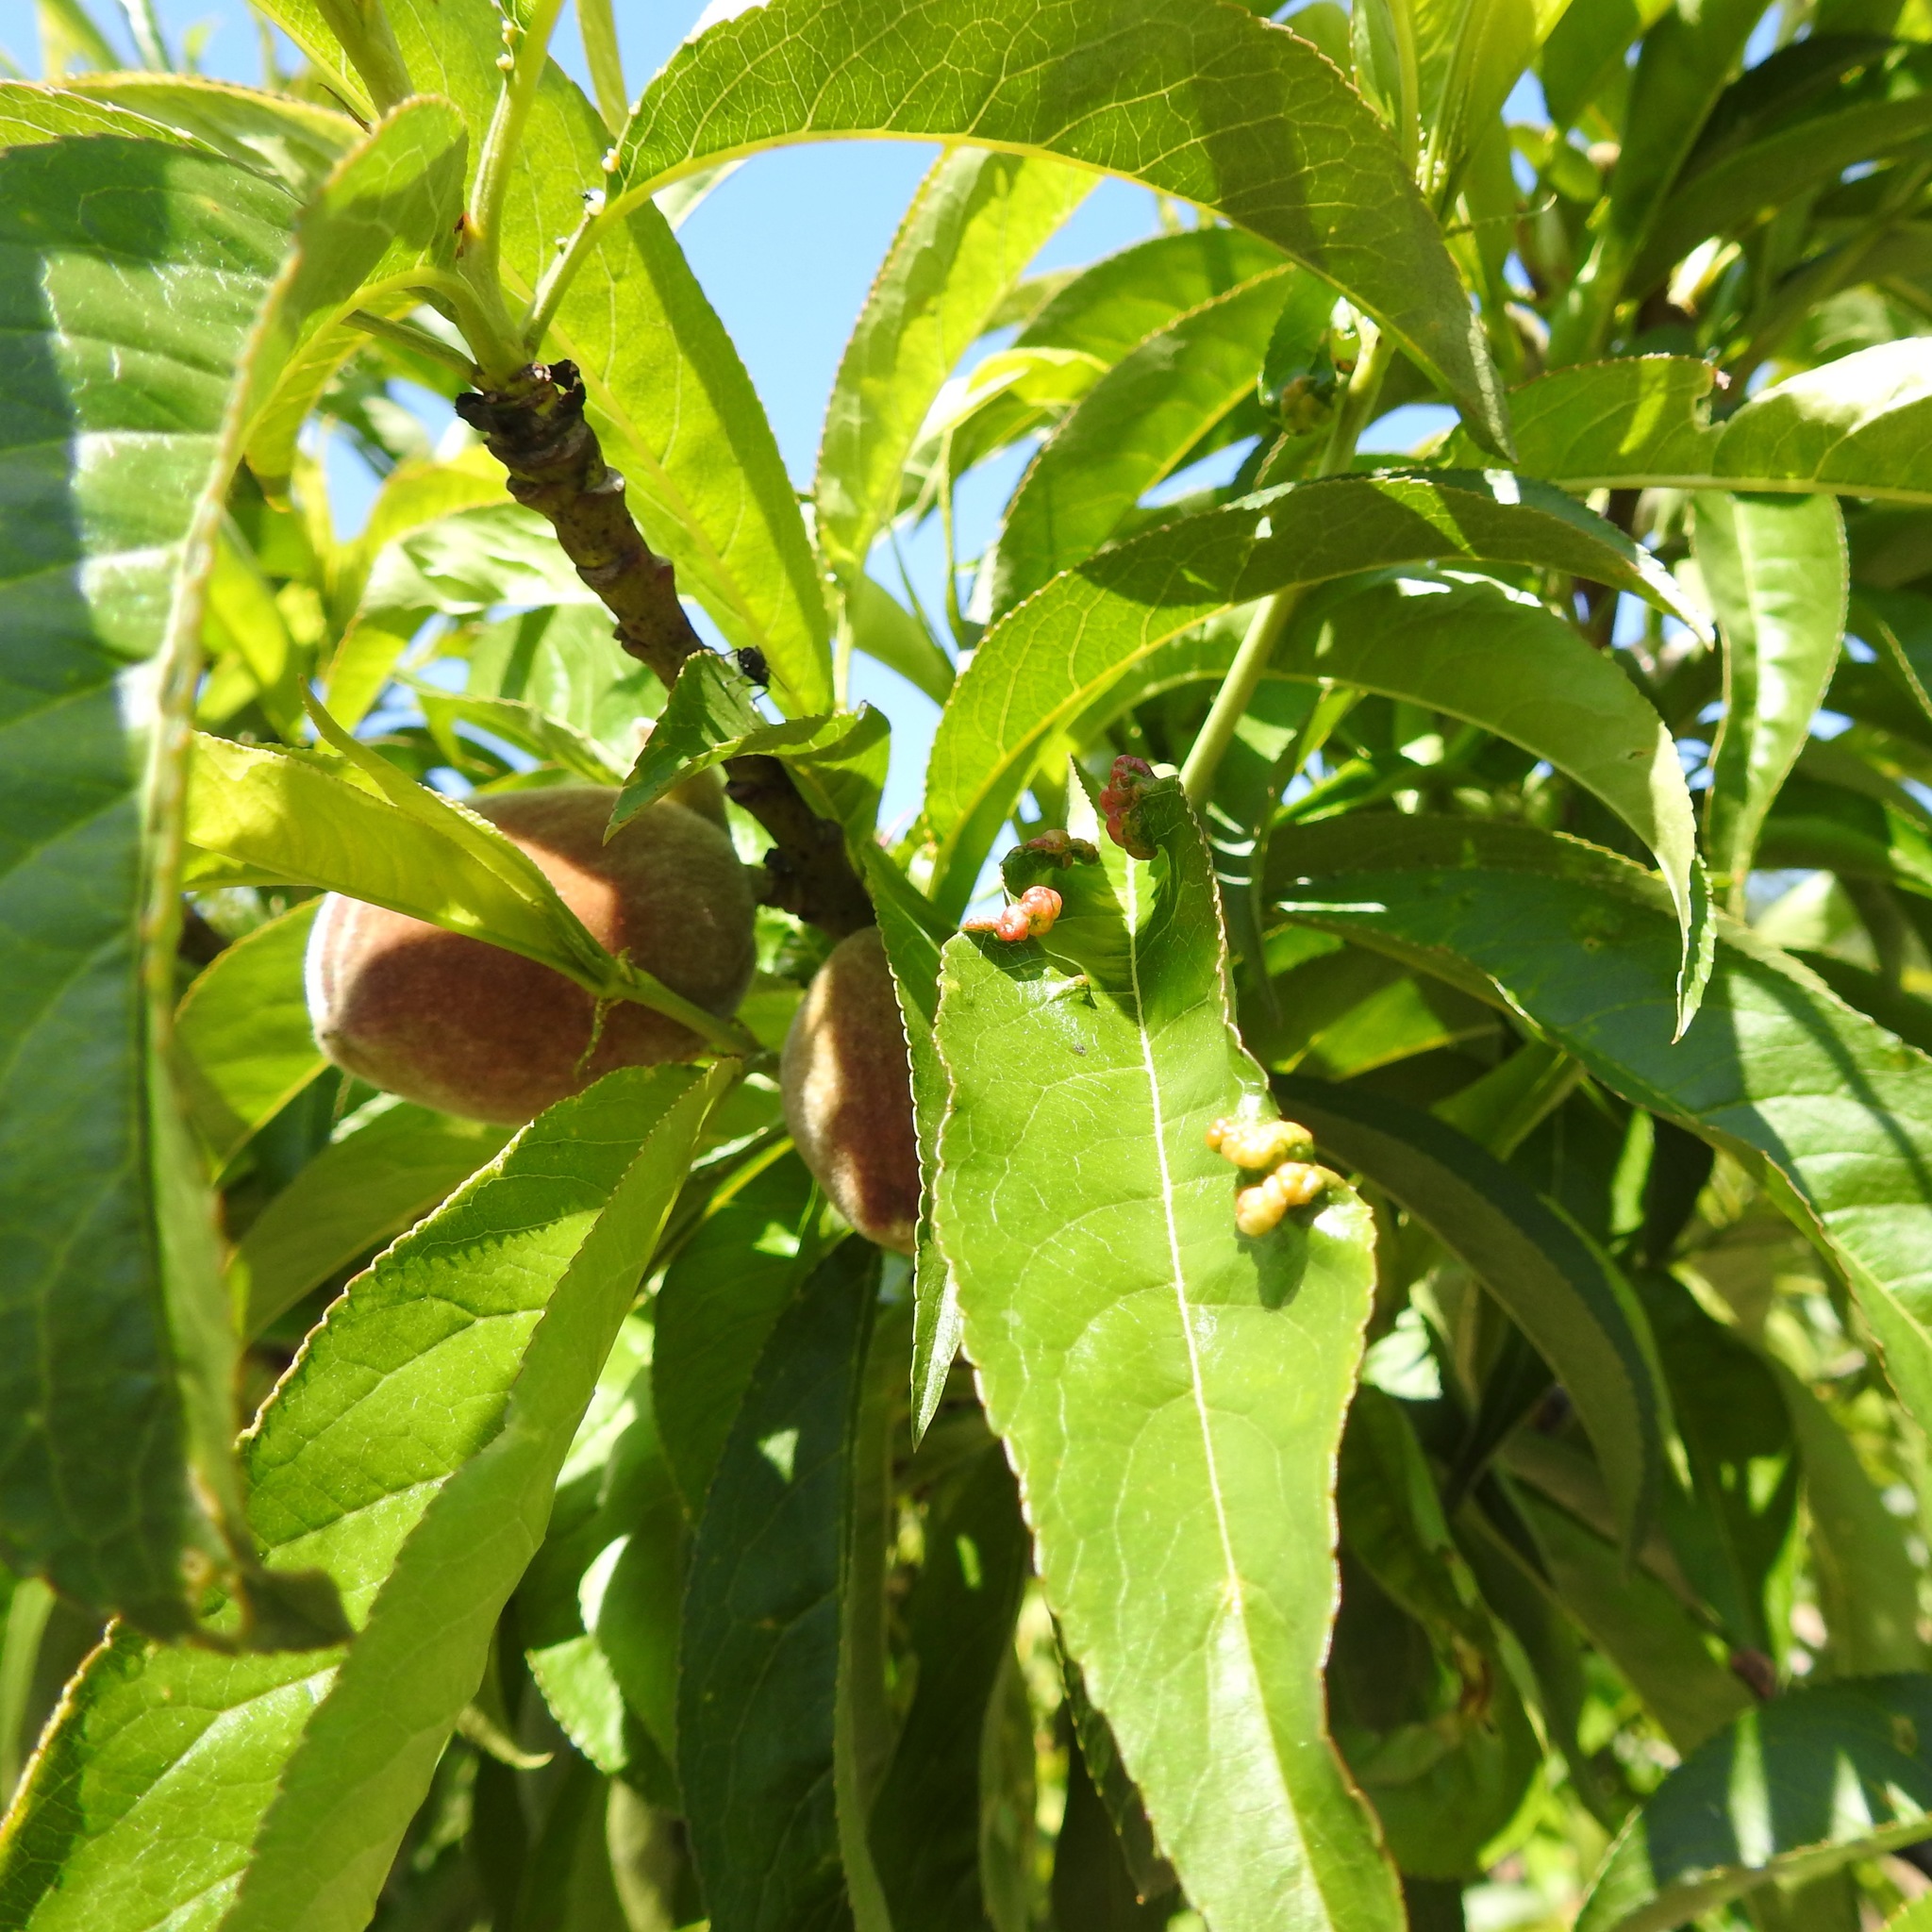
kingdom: Fungi
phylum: Ascomycota
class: Taphrinomycetes
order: Taphrinales
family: Taphrinaceae
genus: Taphrina
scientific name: Taphrina deformans
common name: Peach leaf curl
